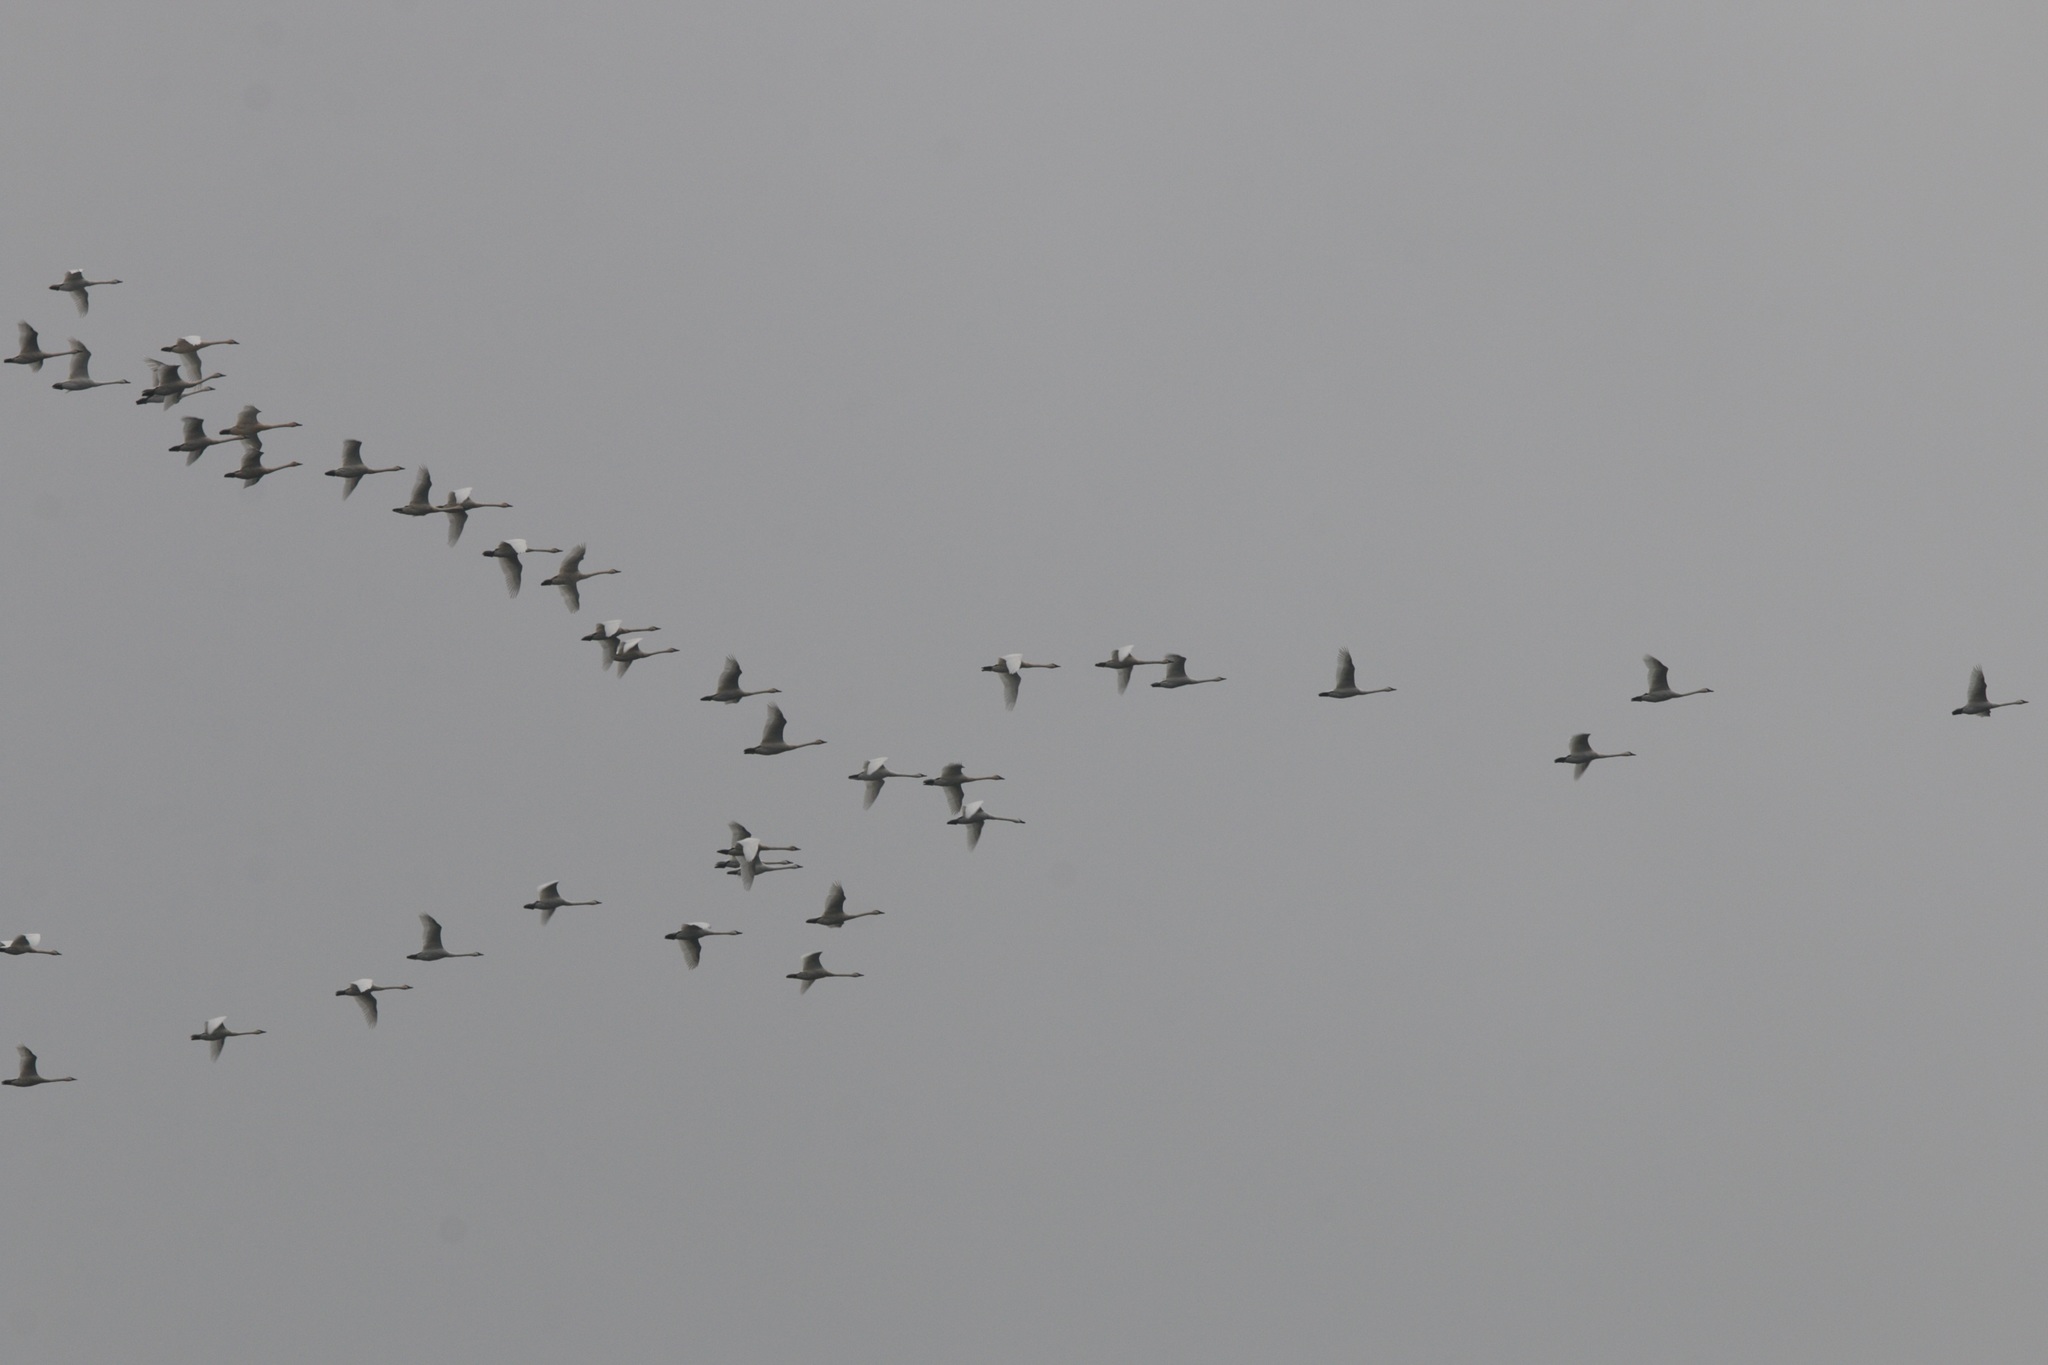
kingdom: Animalia
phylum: Chordata
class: Aves
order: Anseriformes
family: Anatidae
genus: Cygnus
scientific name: Cygnus columbianus
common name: Tundra swan
